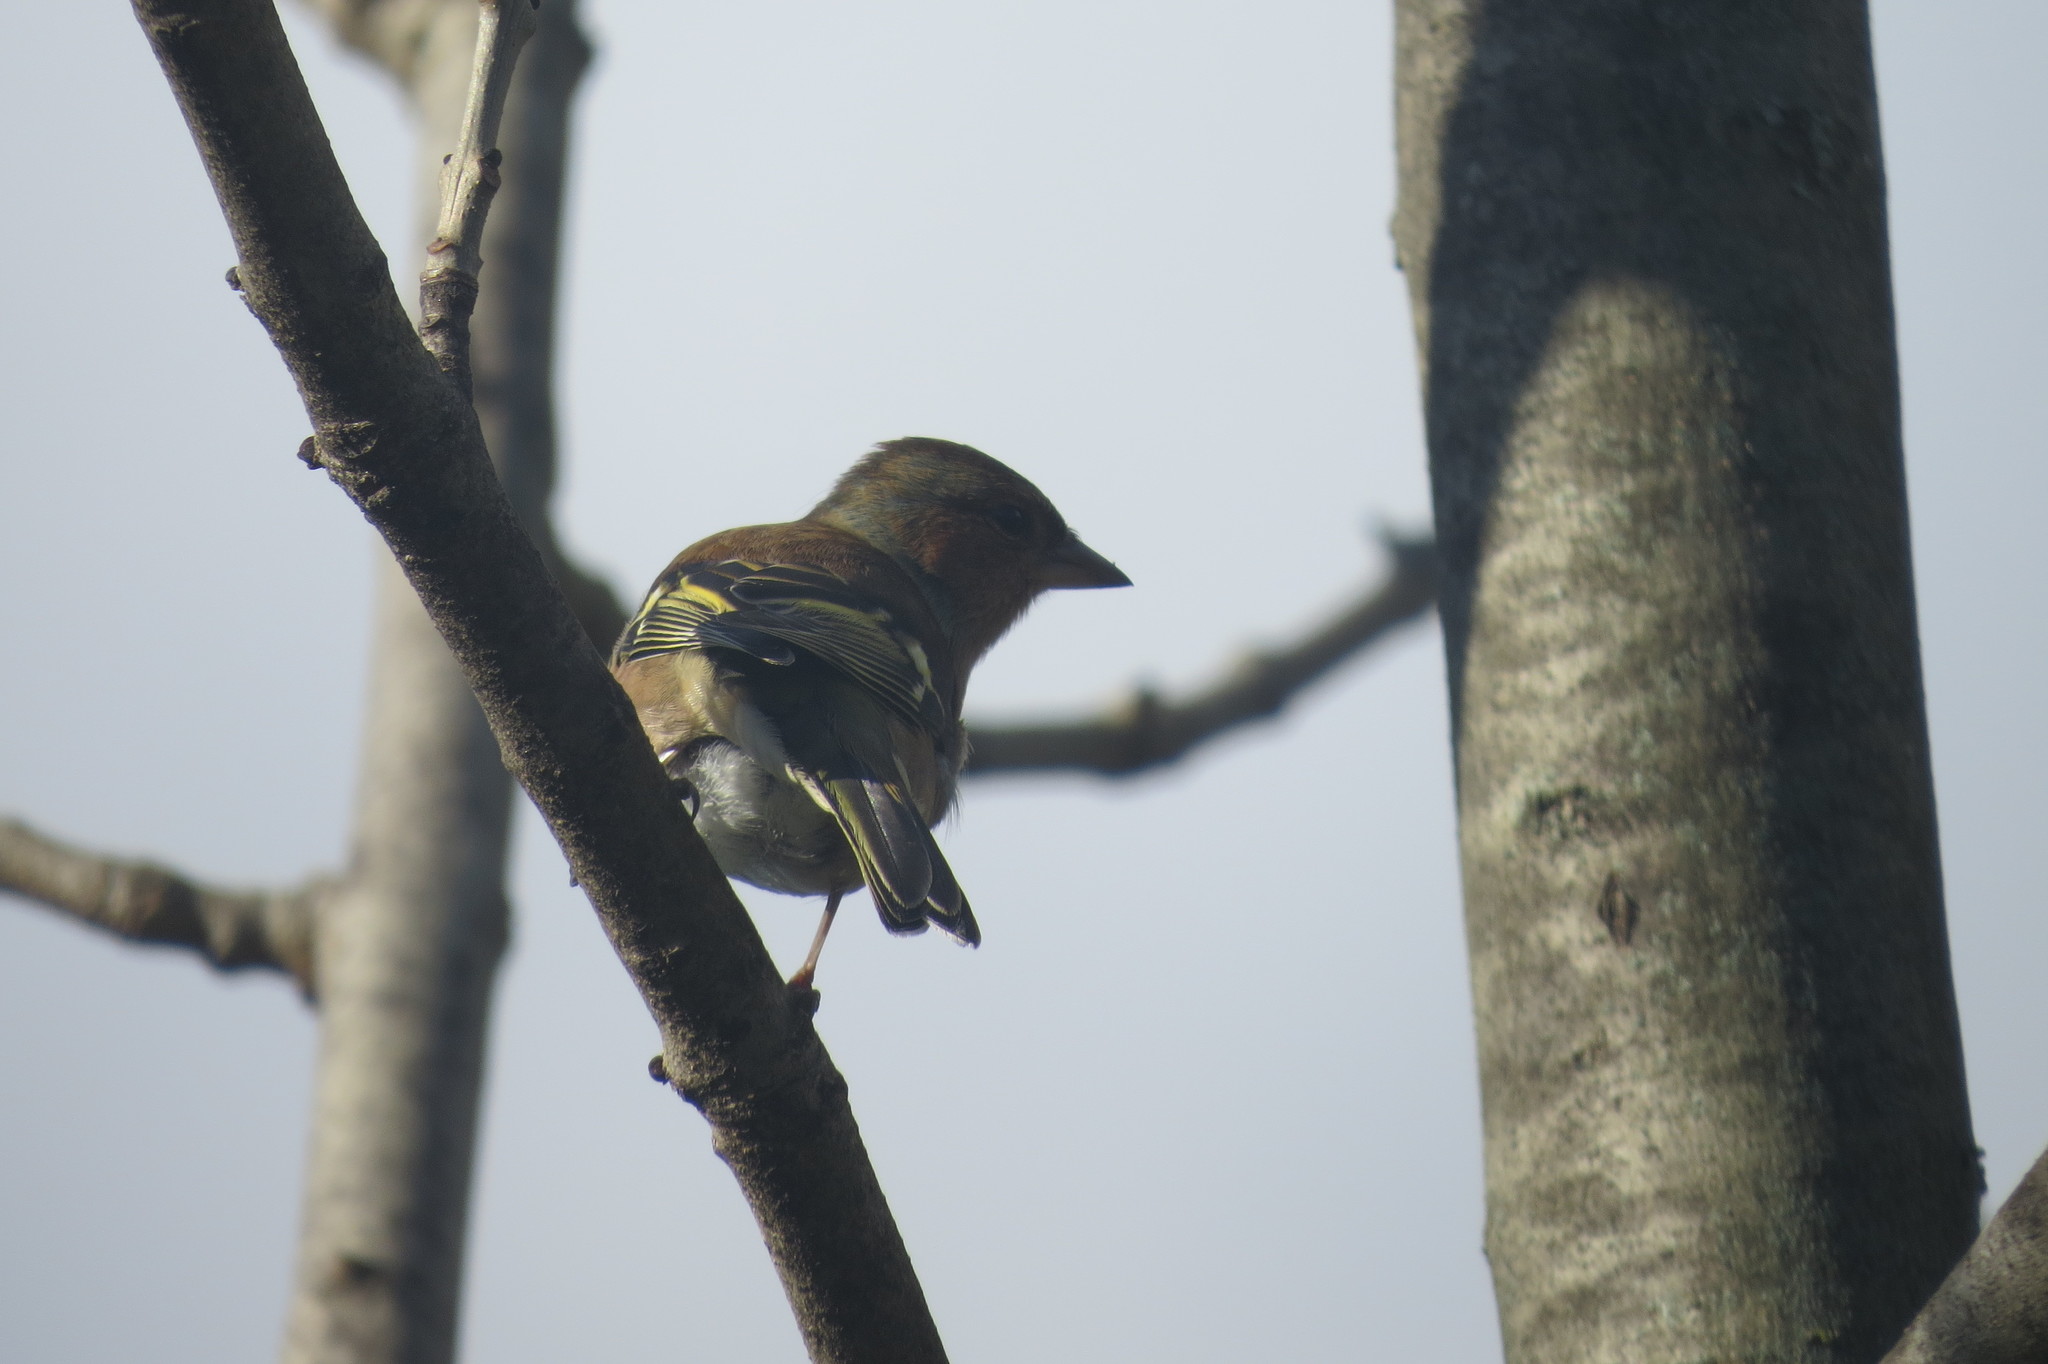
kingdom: Animalia
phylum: Chordata
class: Aves
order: Passeriformes
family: Fringillidae
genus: Fringilla
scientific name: Fringilla coelebs
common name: Common chaffinch
